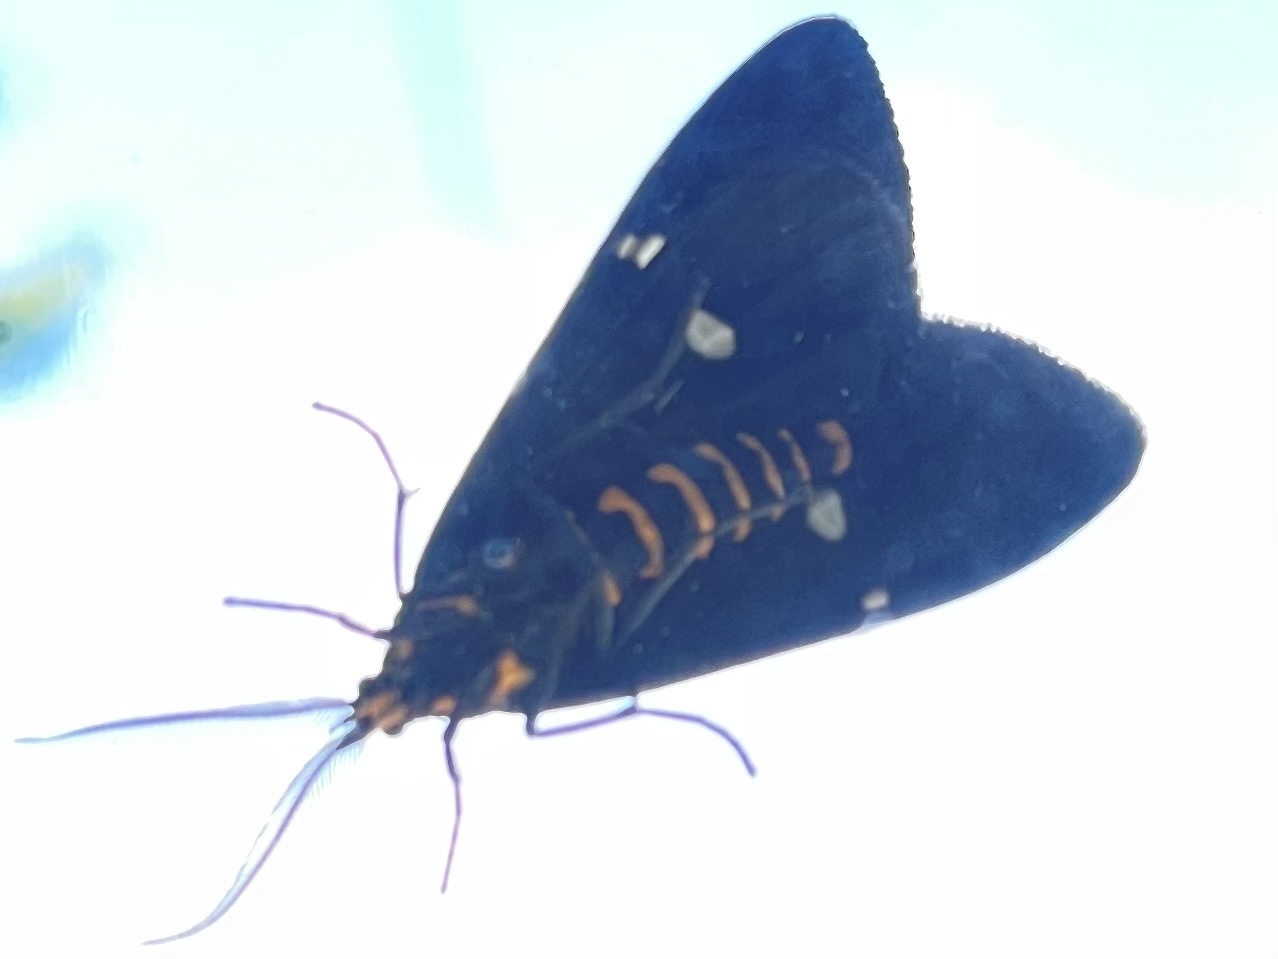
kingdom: Animalia
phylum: Arthropoda
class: Insecta
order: Lepidoptera
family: Erebidae
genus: Nyctemera
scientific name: Nyctemera annulatum
